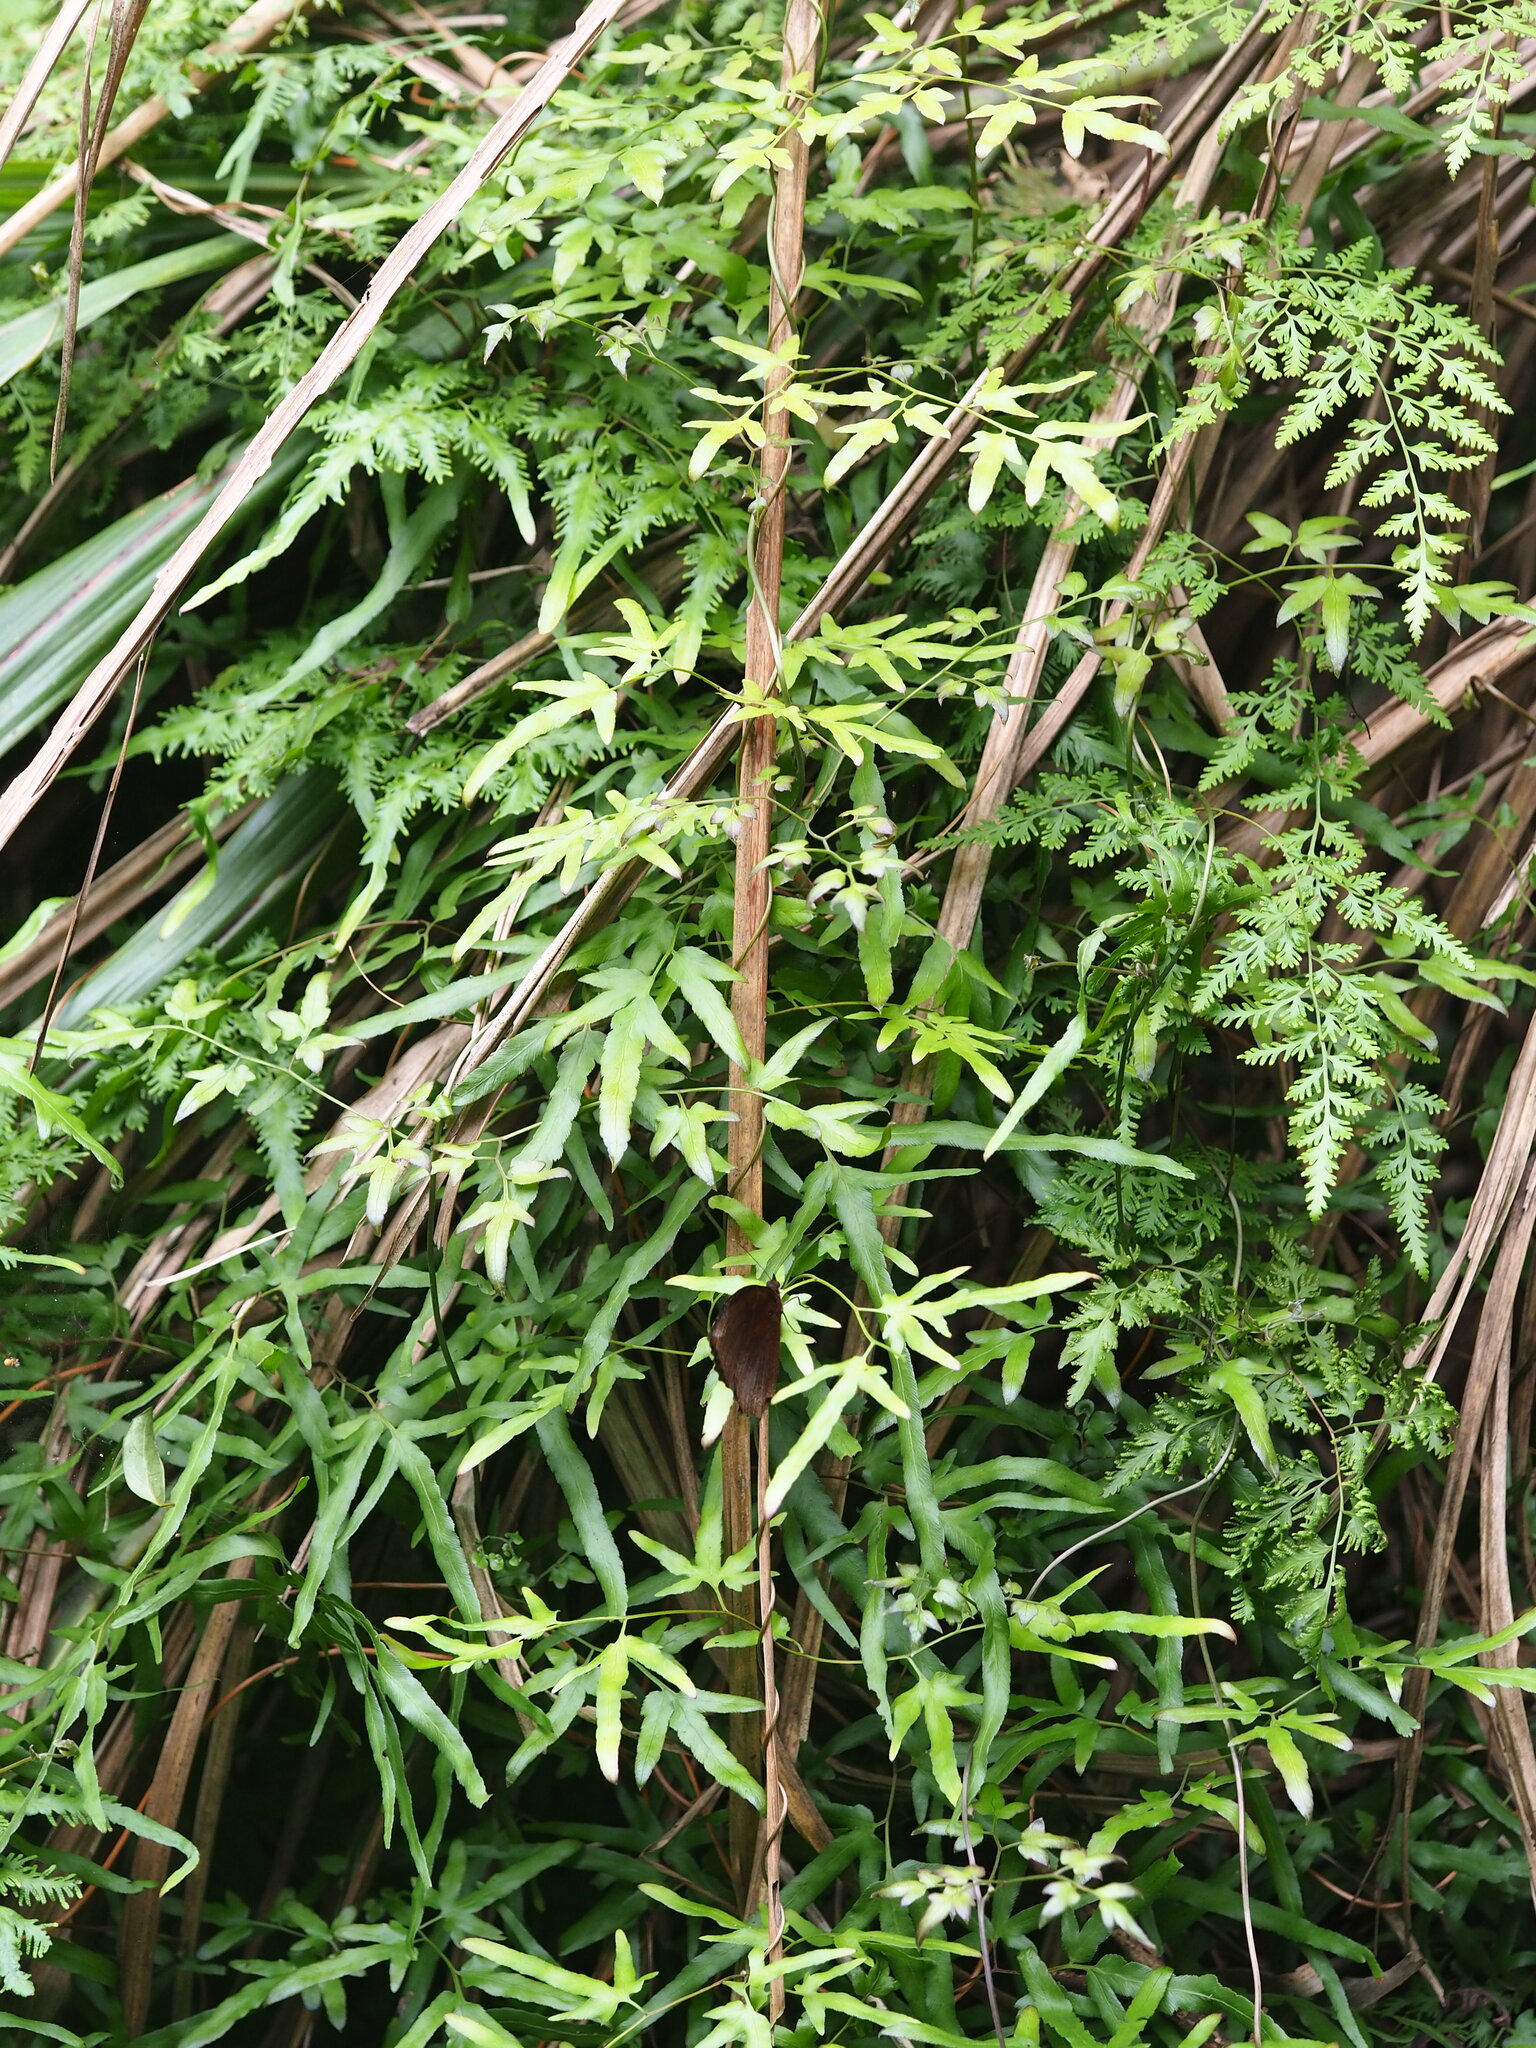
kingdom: Plantae
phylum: Tracheophyta
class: Polypodiopsida
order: Schizaeales
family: Lygodiaceae
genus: Lygodium
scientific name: Lygodium japonicum
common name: Japanese climbing fern
